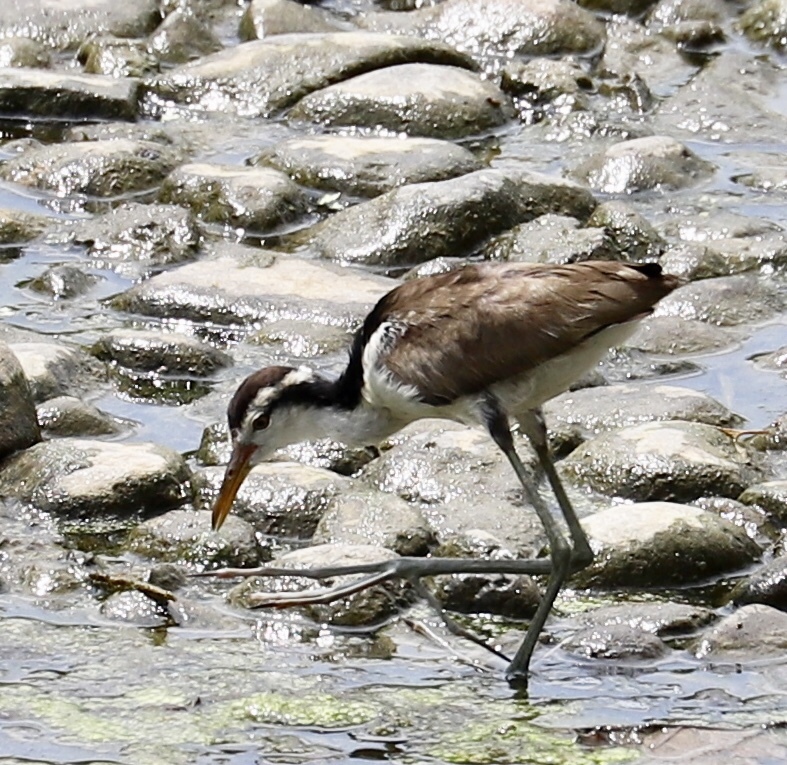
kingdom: Animalia
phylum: Chordata
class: Aves
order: Charadriiformes
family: Jacanidae
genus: Jacana
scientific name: Jacana jacana
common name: Wattled jacana
